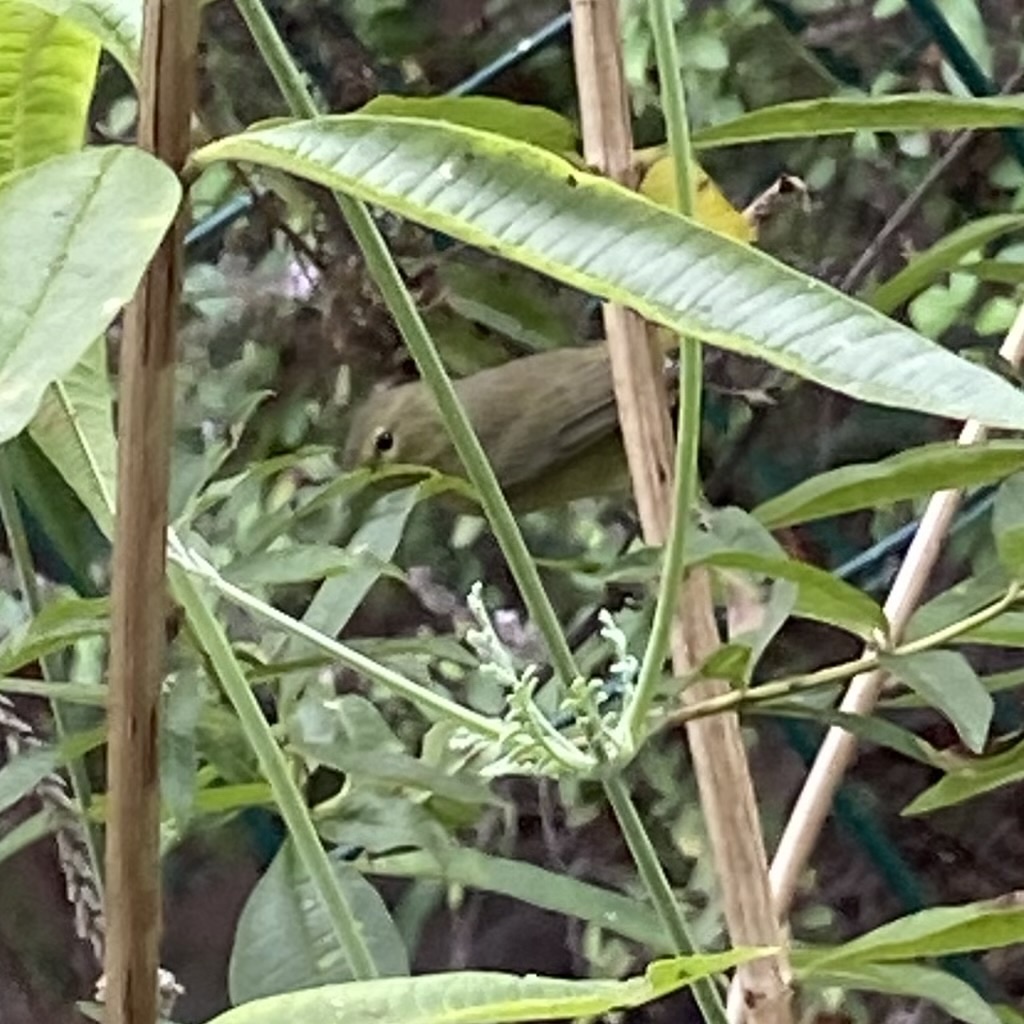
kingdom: Animalia
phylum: Chordata
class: Aves
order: Passeriformes
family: Parulidae
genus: Leiothlypis
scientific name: Leiothlypis celata
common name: Orange-crowned warbler
